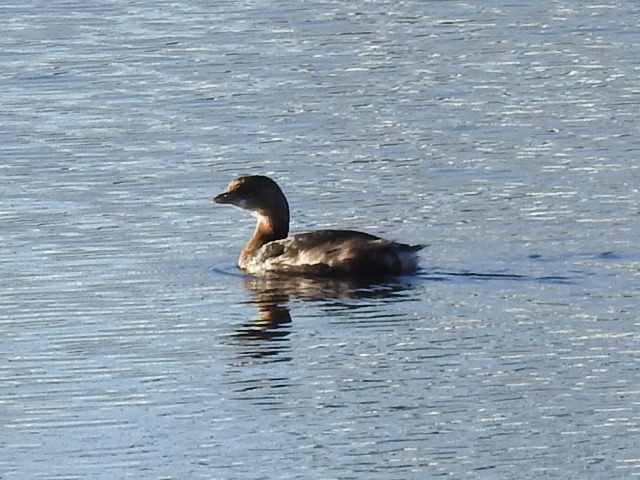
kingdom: Animalia
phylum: Chordata
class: Aves
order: Podicipediformes
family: Podicipedidae
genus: Podilymbus
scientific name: Podilymbus podiceps
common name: Pied-billed grebe
